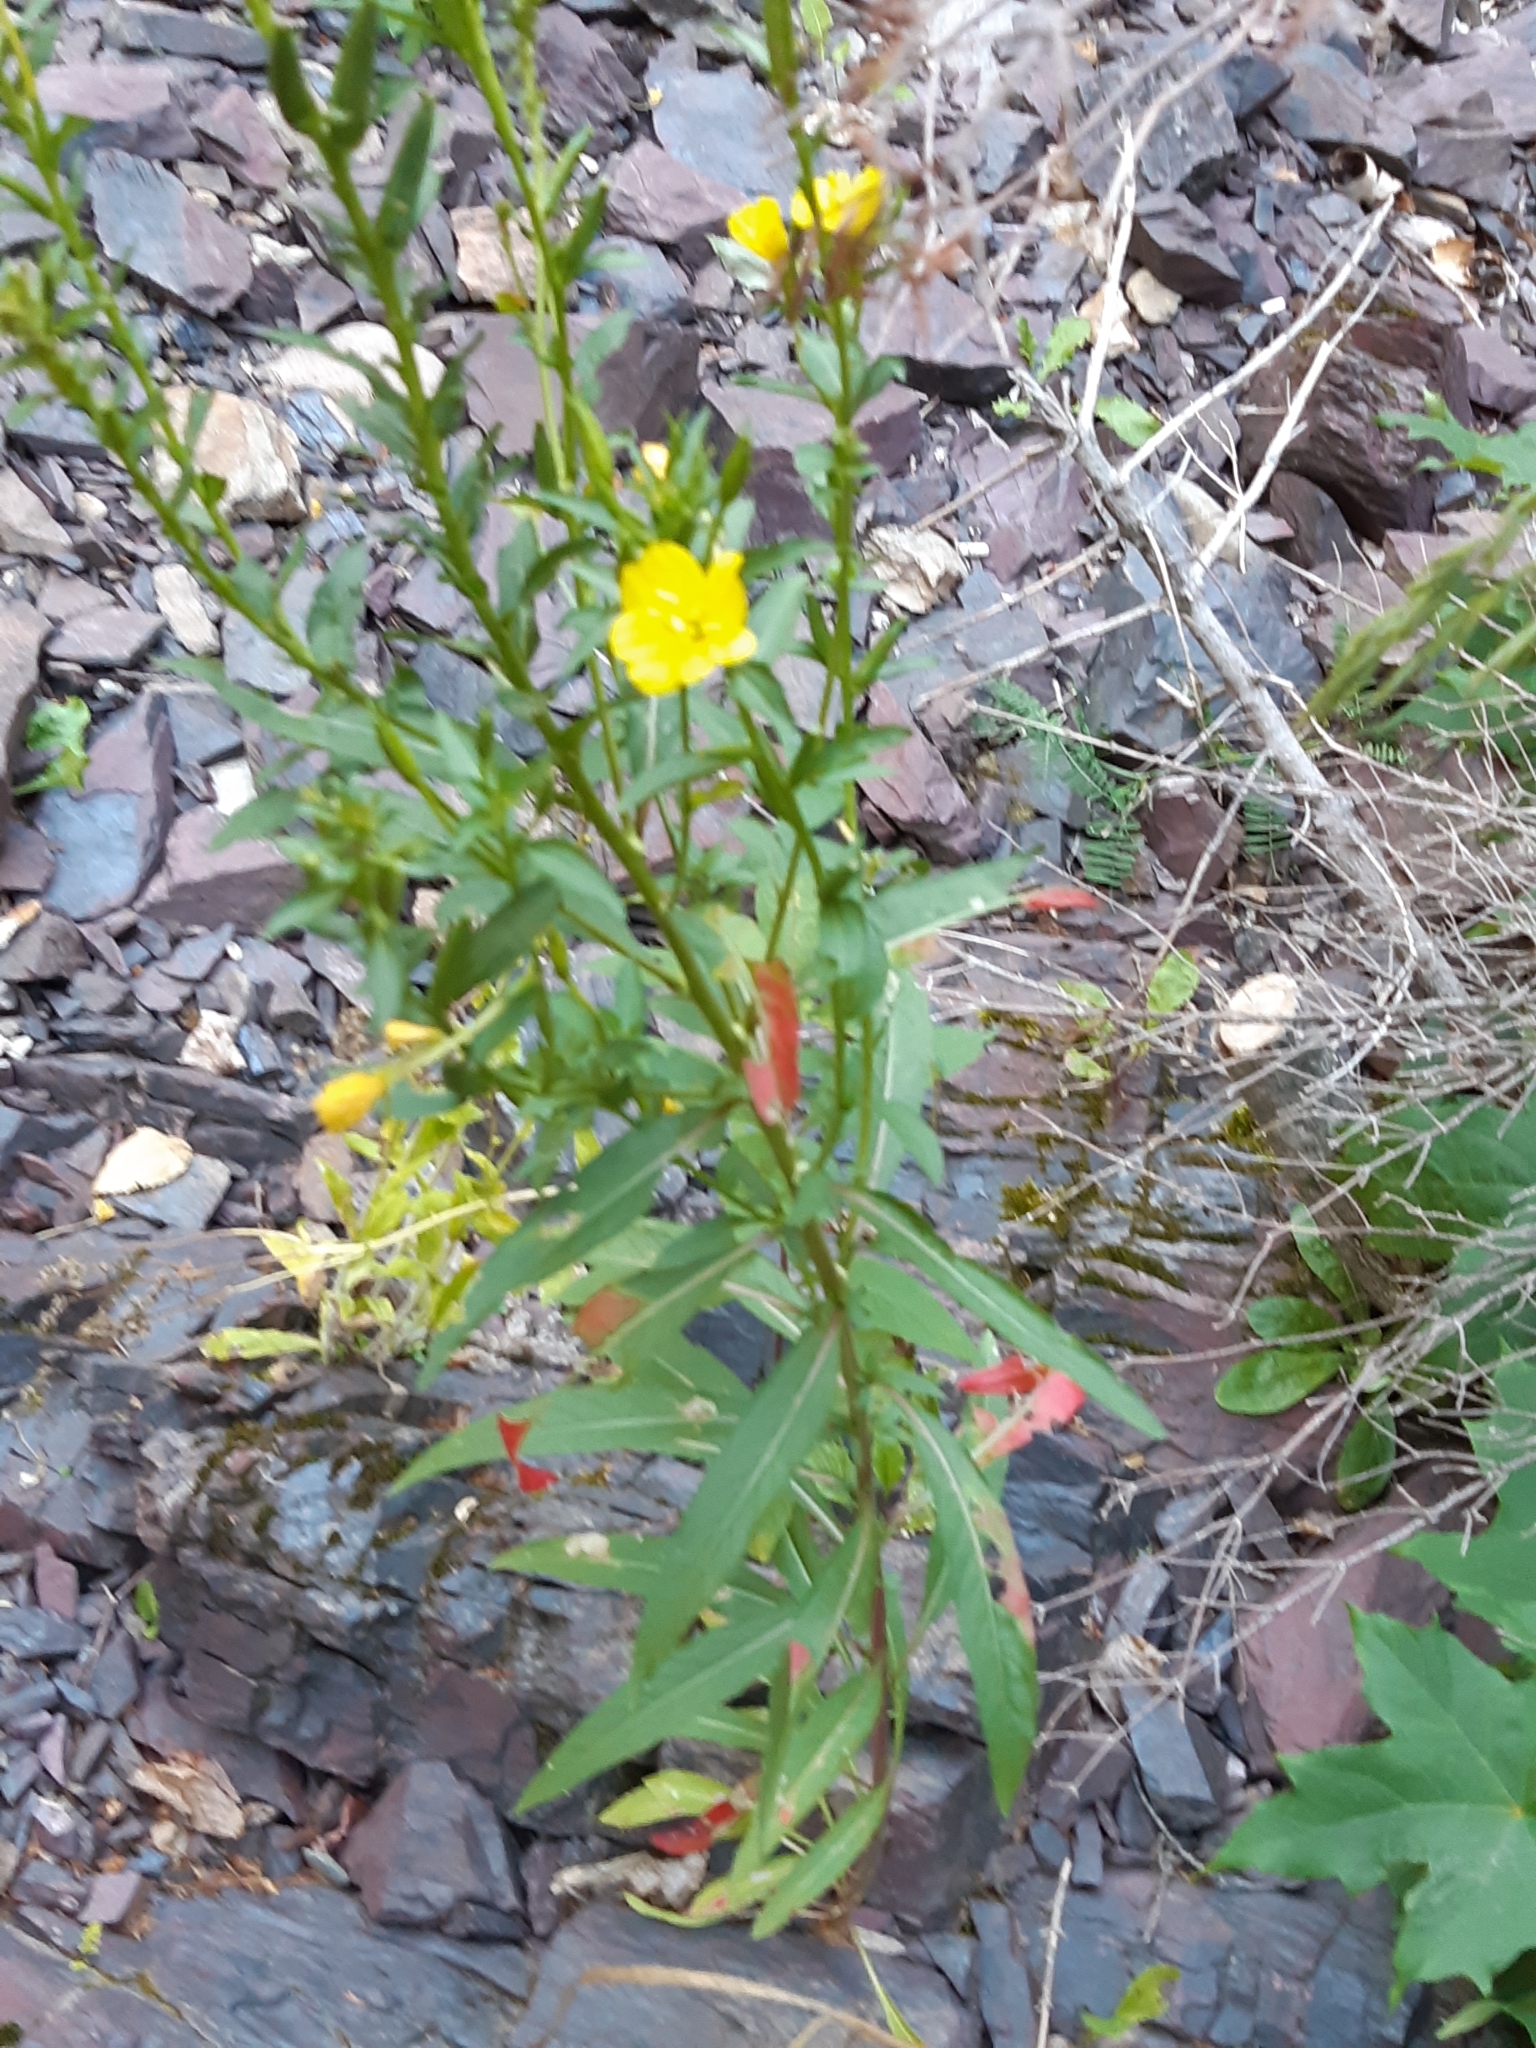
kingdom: Plantae
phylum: Tracheophyta
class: Magnoliopsida
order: Myrtales
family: Onagraceae
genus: Oenothera
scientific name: Oenothera biennis
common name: Common evening-primrose
